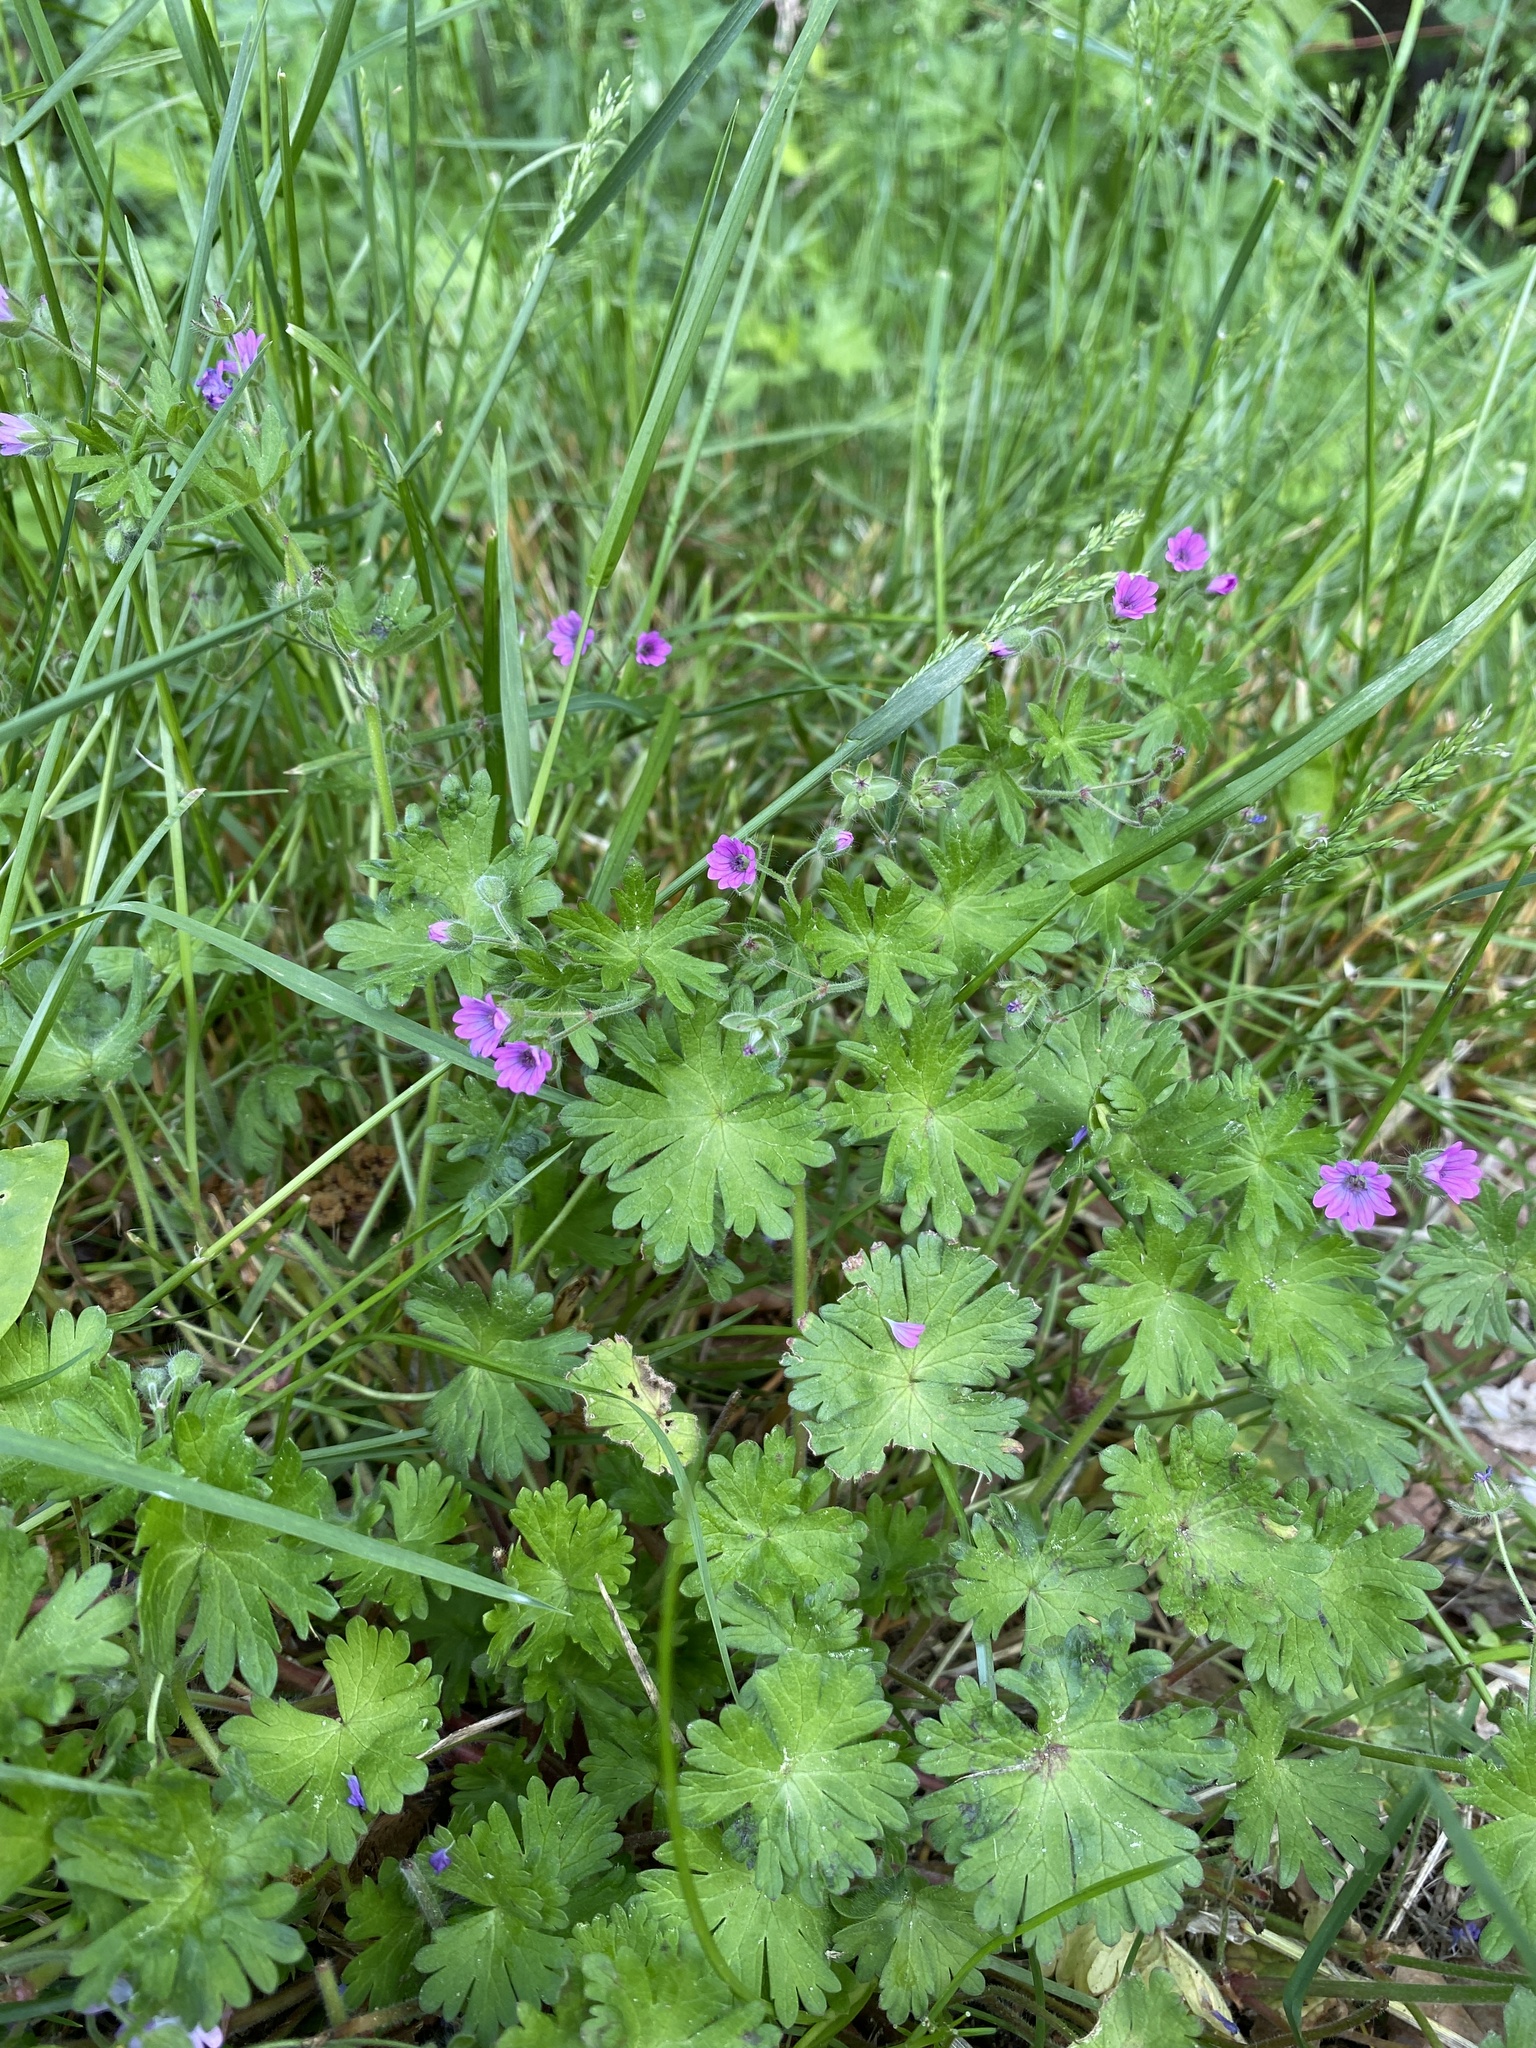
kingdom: Plantae
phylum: Tracheophyta
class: Magnoliopsida
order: Geraniales
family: Geraniaceae
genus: Geranium
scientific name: Geranium molle
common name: Dove's-foot crane's-bill
